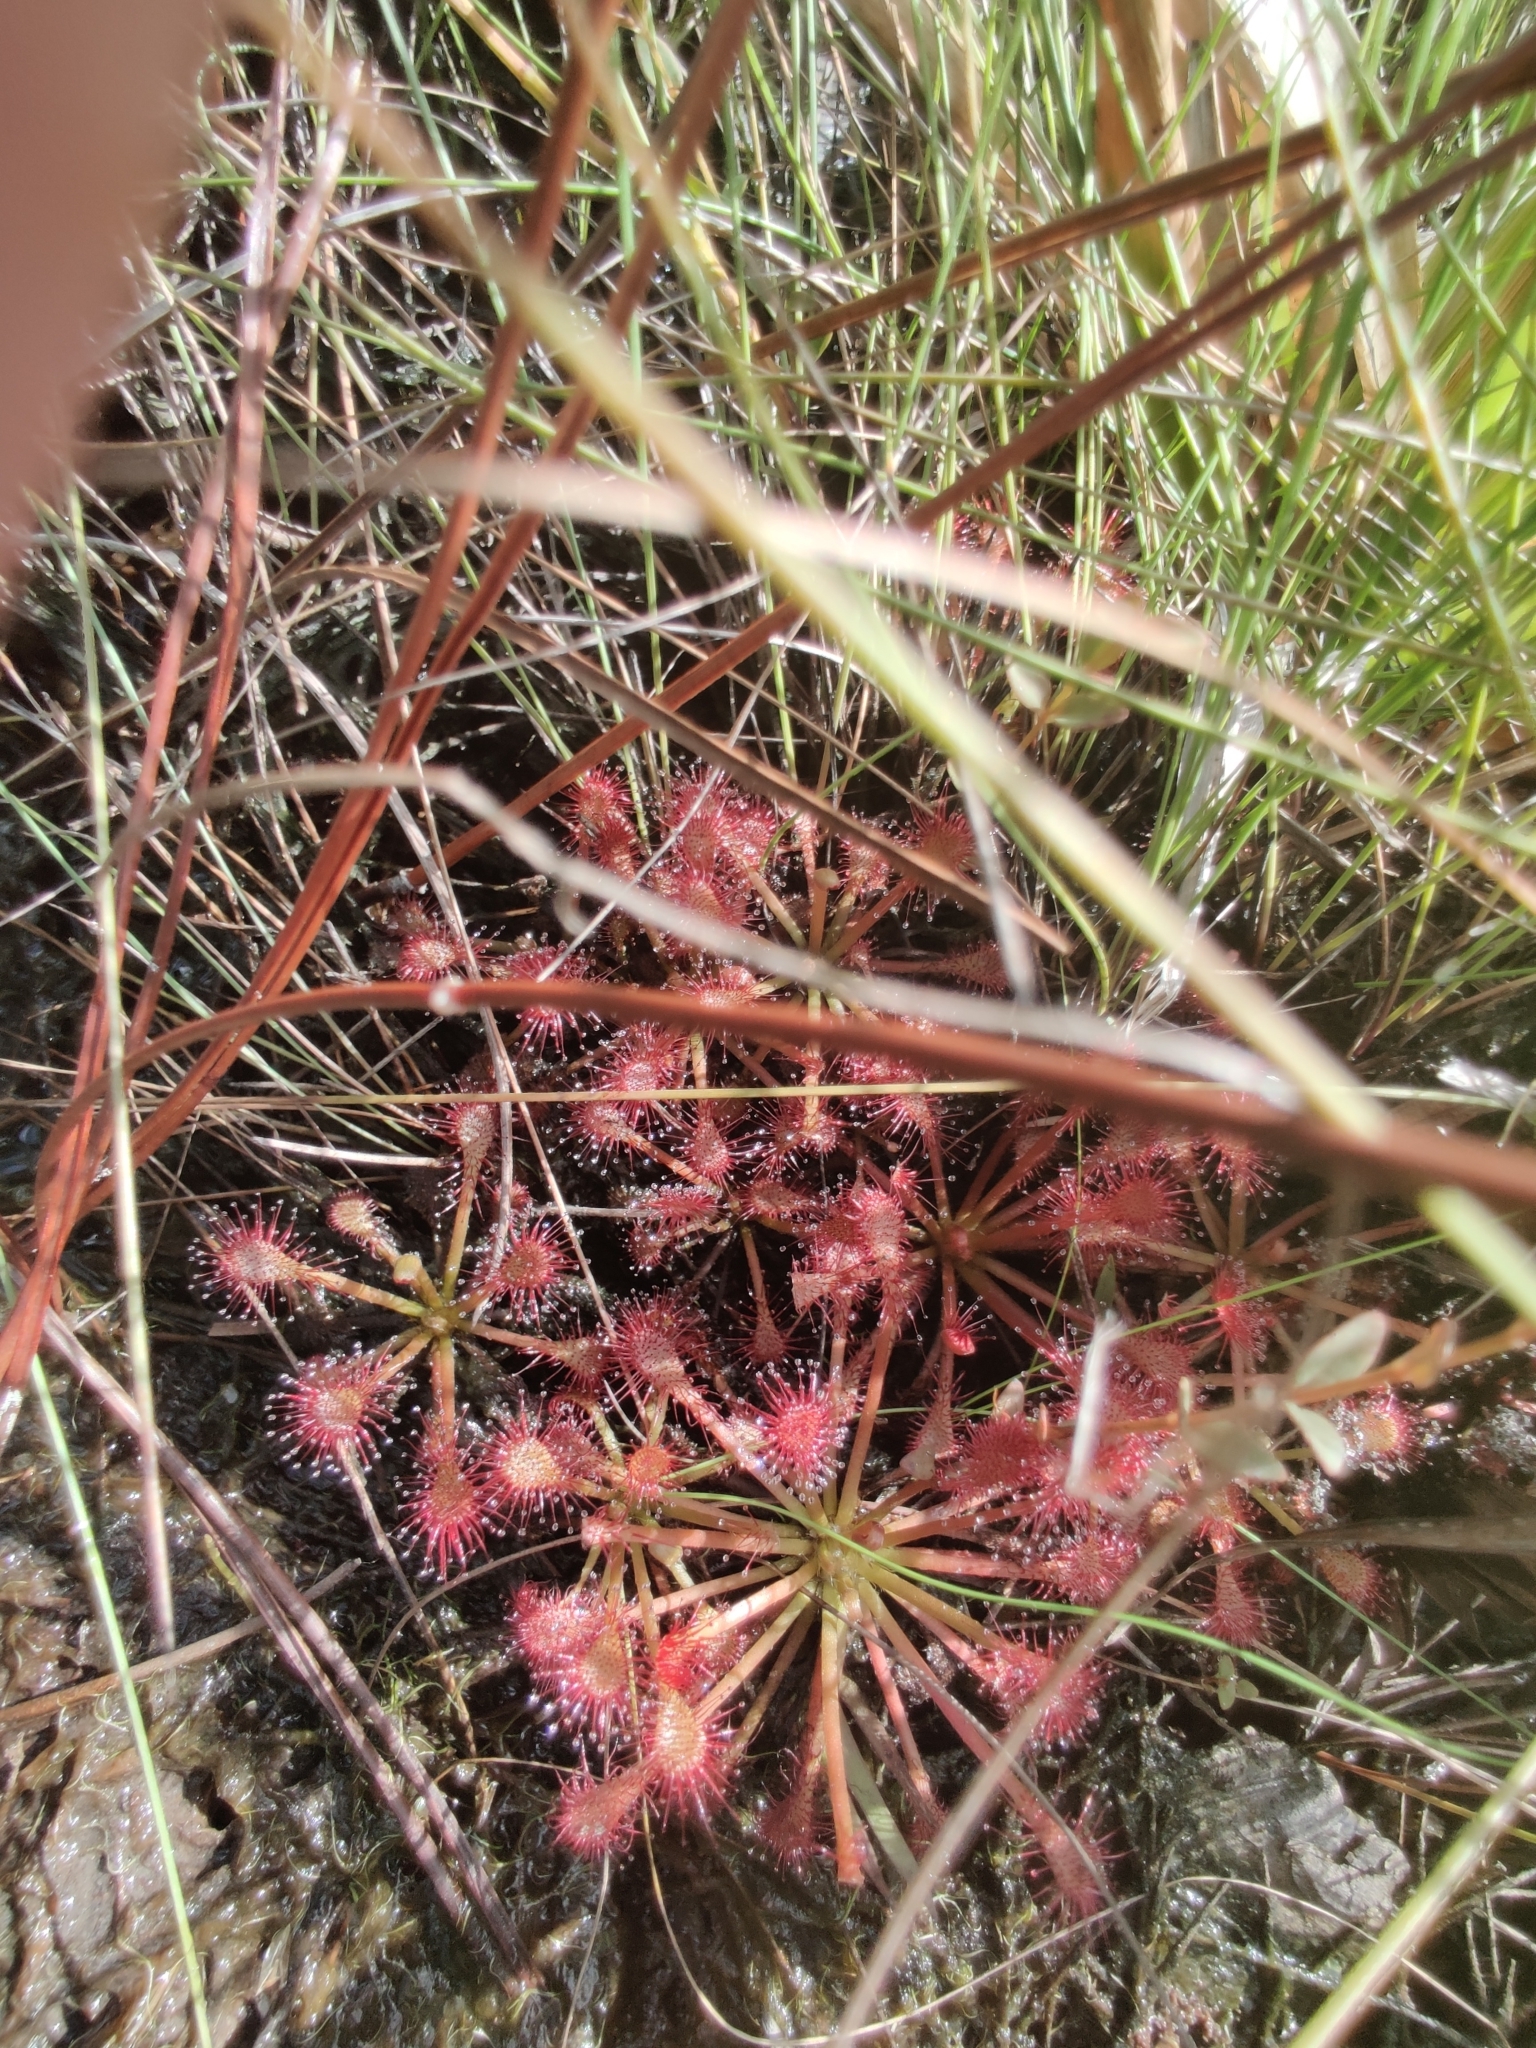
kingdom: Plantae
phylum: Tracheophyta
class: Magnoliopsida
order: Caryophyllales
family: Droseraceae
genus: Drosera
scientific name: Drosera capillaris
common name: Pink sundew
